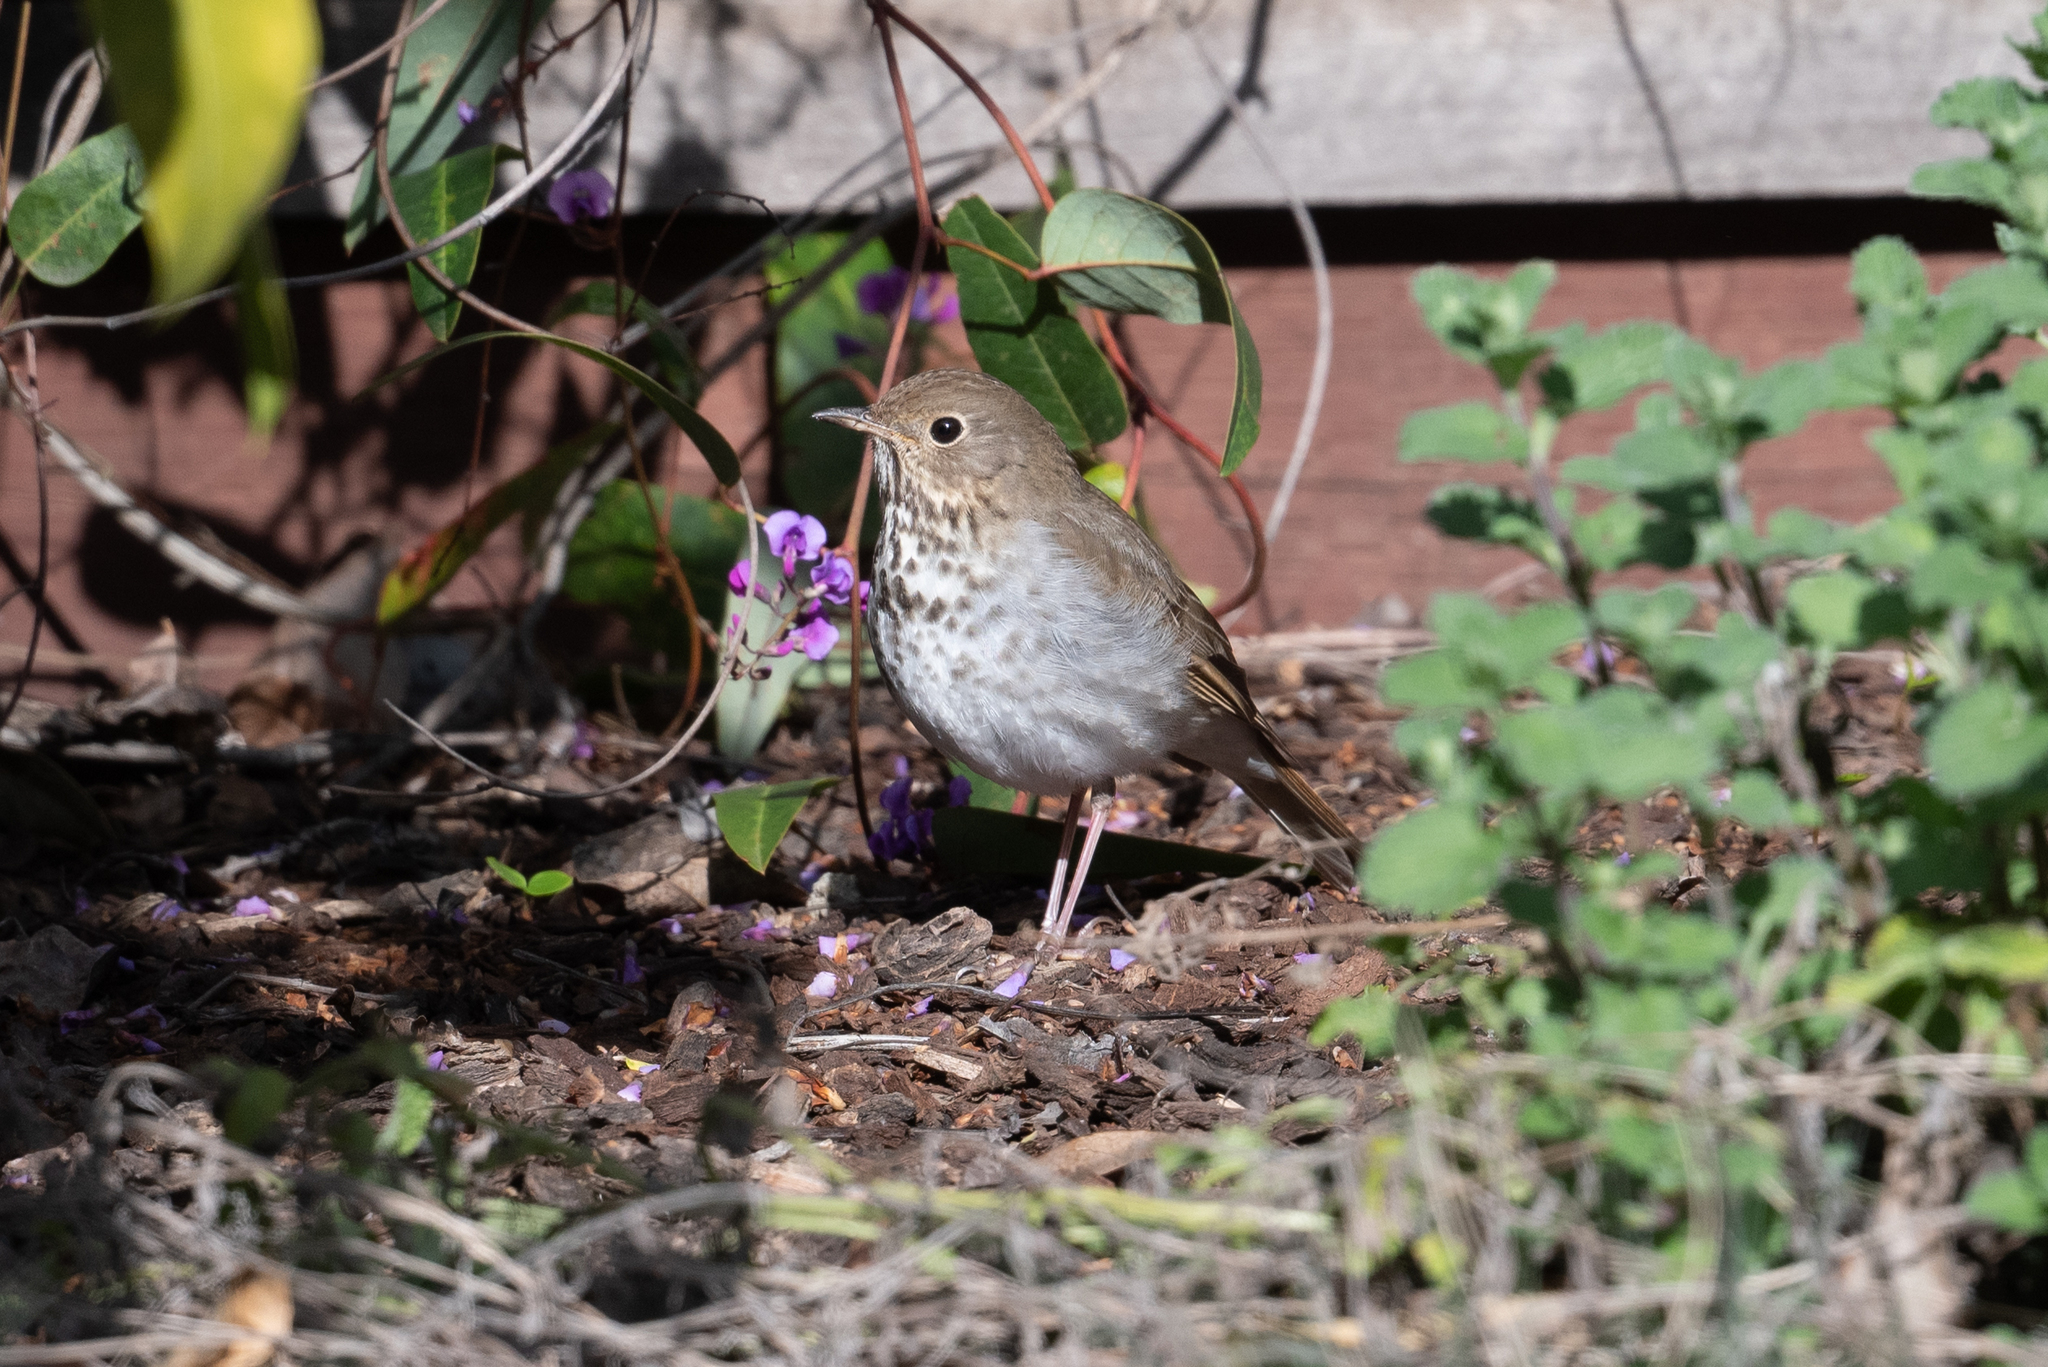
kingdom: Animalia
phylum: Chordata
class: Aves
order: Passeriformes
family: Turdidae
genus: Catharus
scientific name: Catharus guttatus
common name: Hermit thrush
